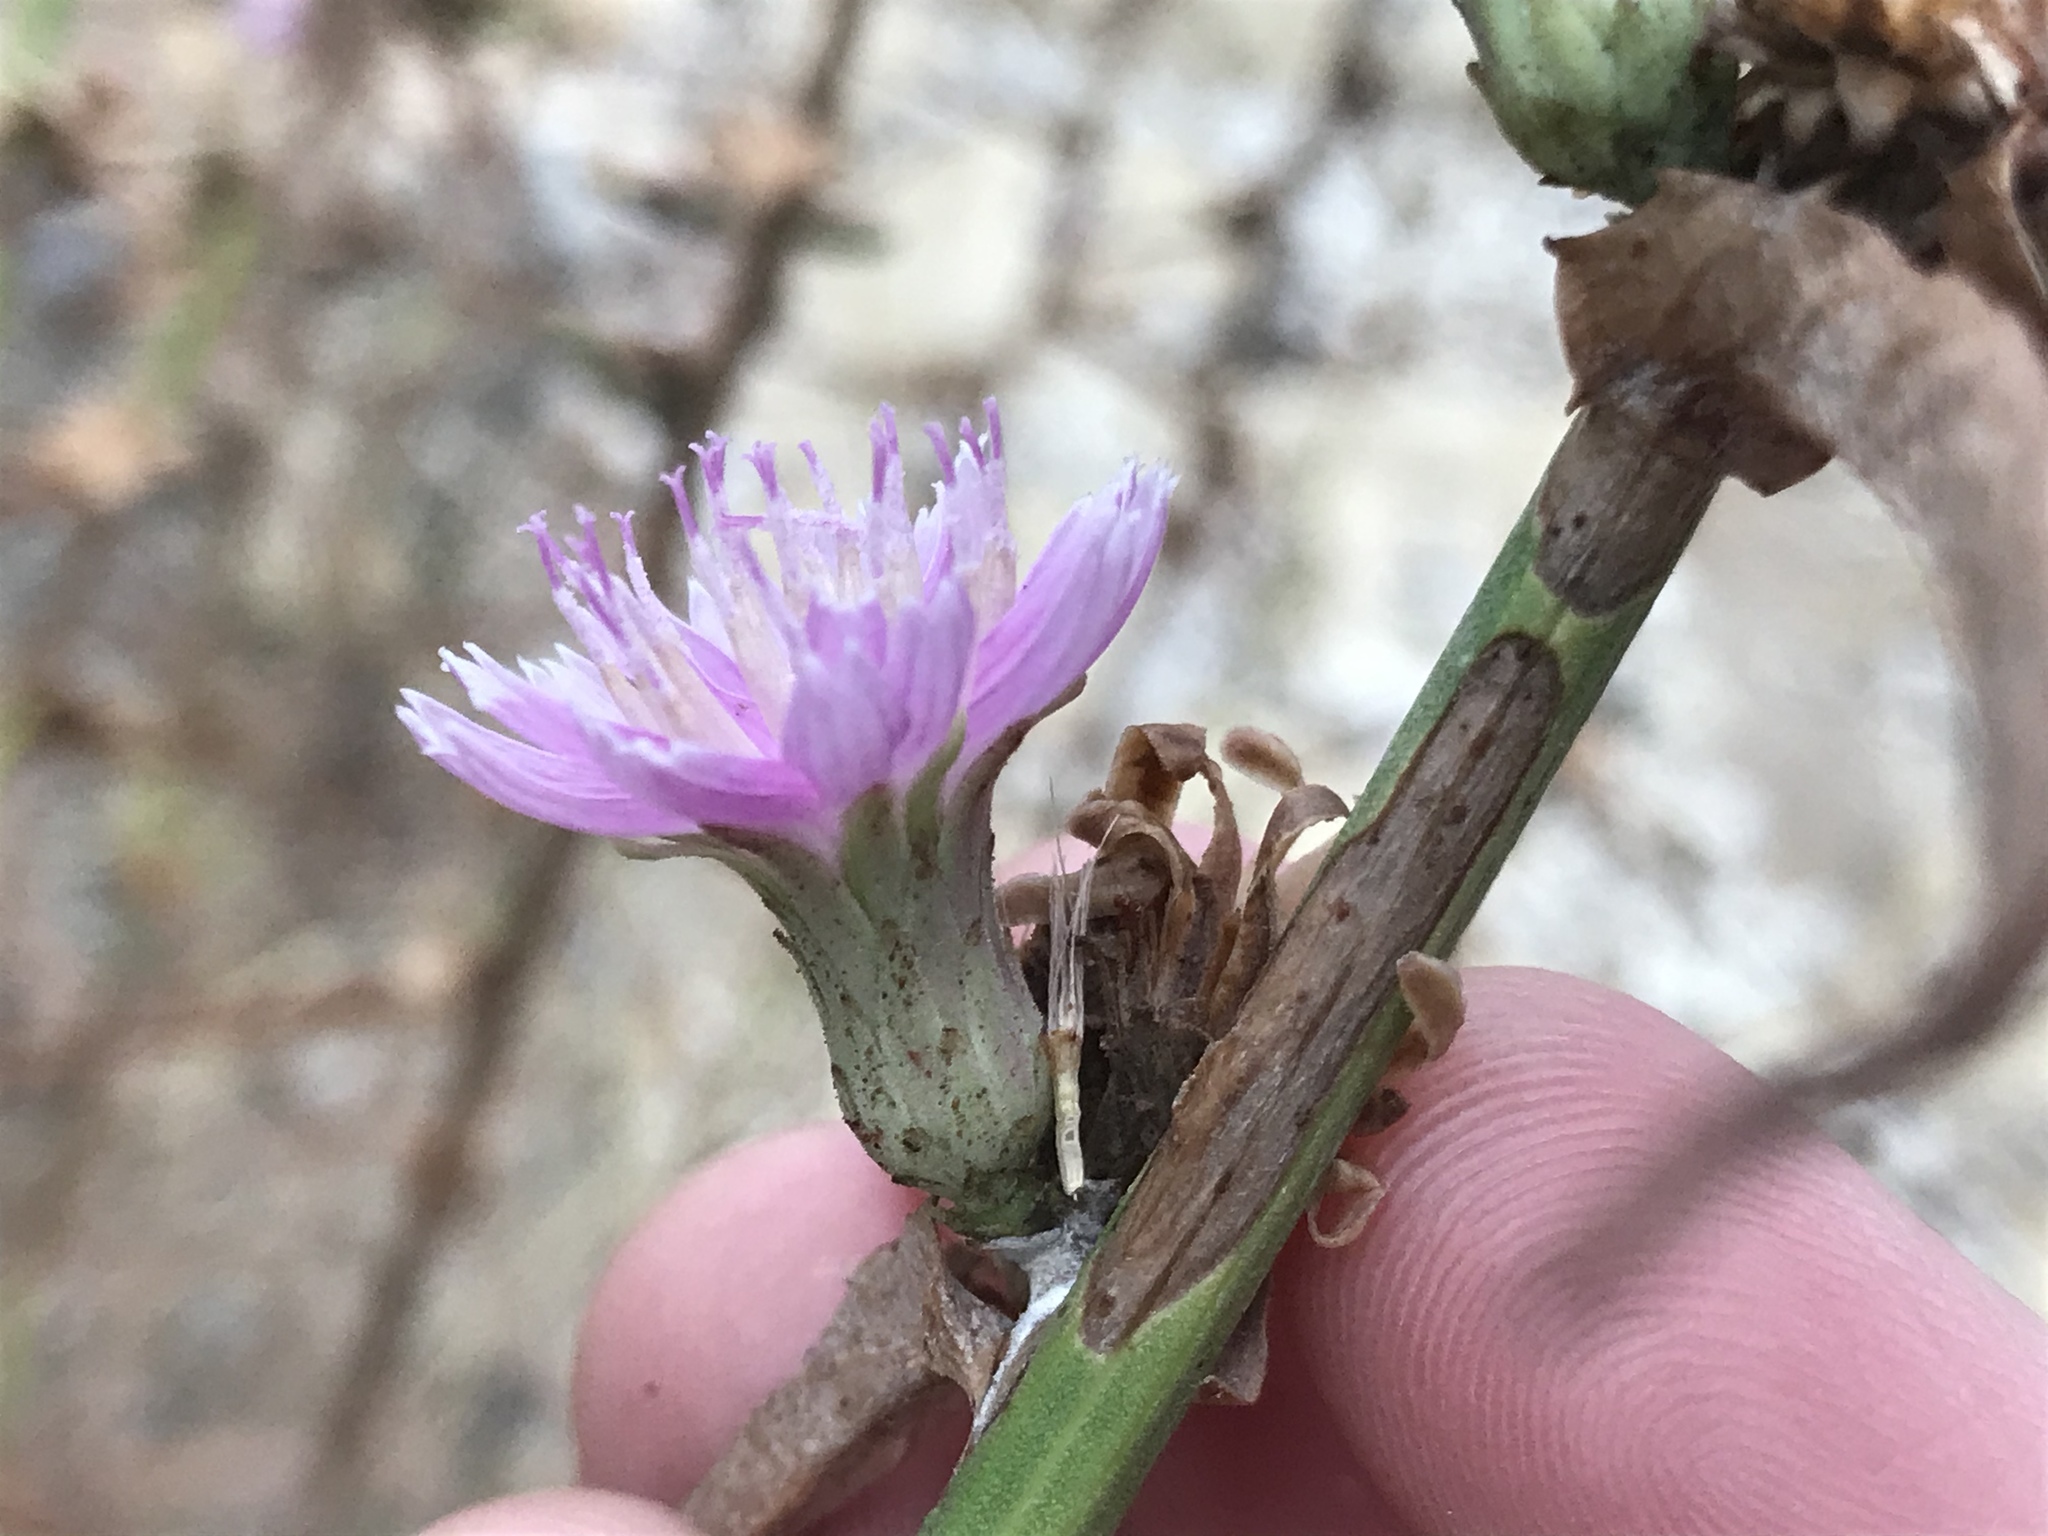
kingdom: Plantae
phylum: Tracheophyta
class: Magnoliopsida
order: Asterales
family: Asteraceae
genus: Stephanomeria
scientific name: Stephanomeria cichoriacea
